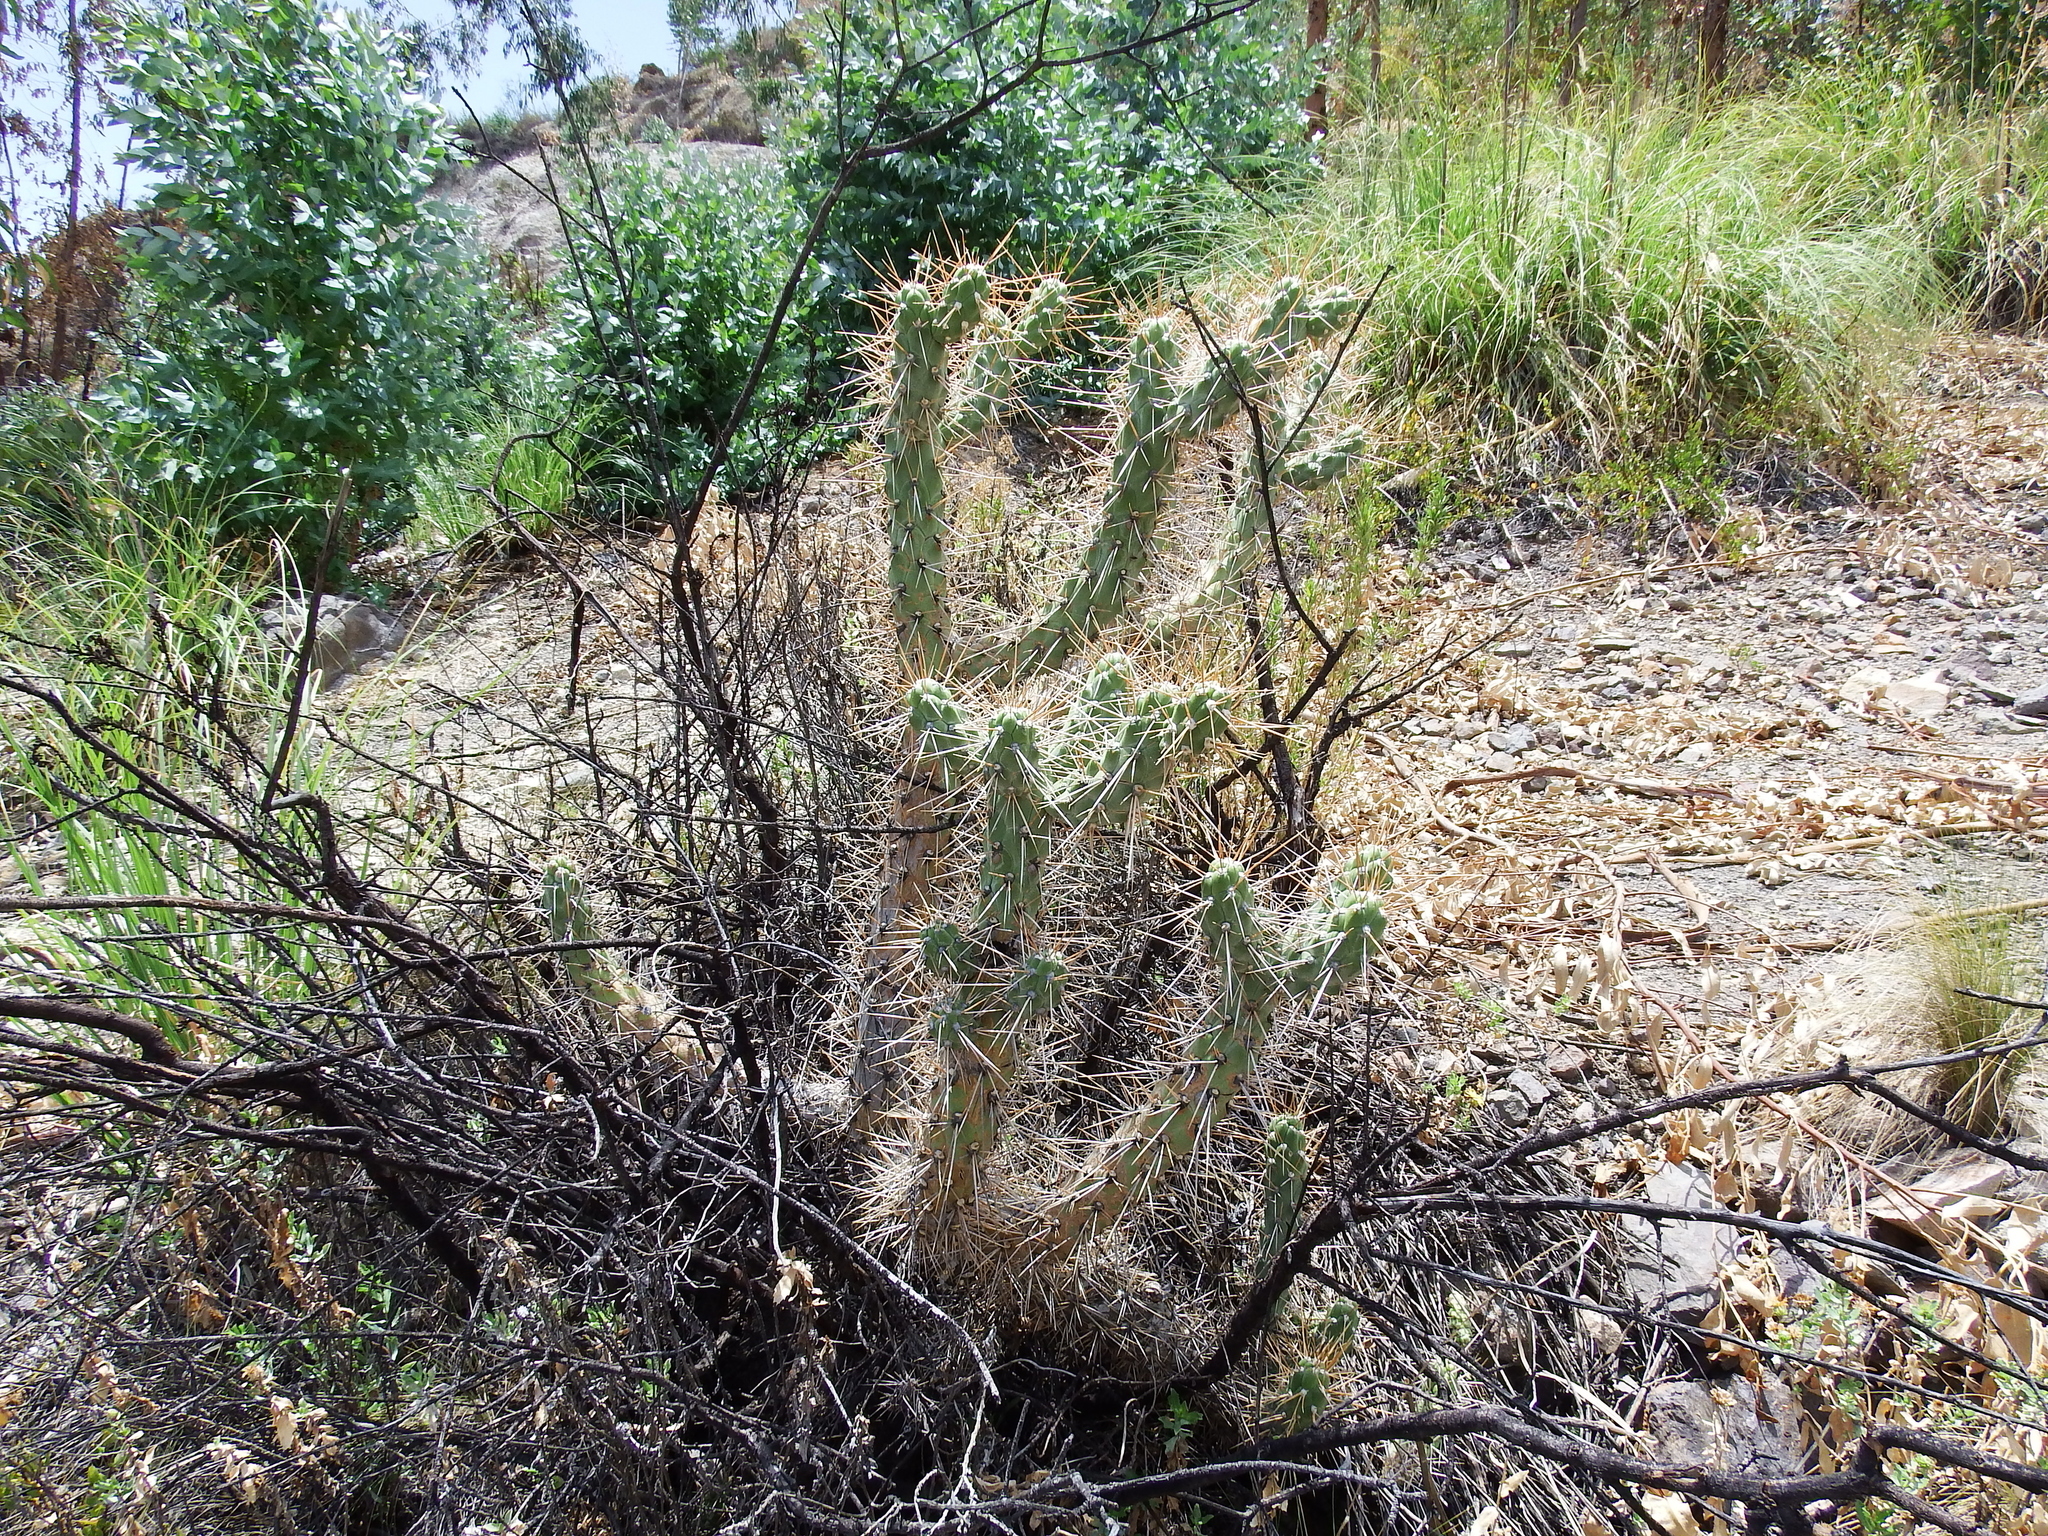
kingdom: Plantae
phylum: Tracheophyta
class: Magnoliopsida
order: Caryophyllales
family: Cactaceae
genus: Austrocylindropuntia
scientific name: Austrocylindropuntia subulata
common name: Eve's needle cactus
